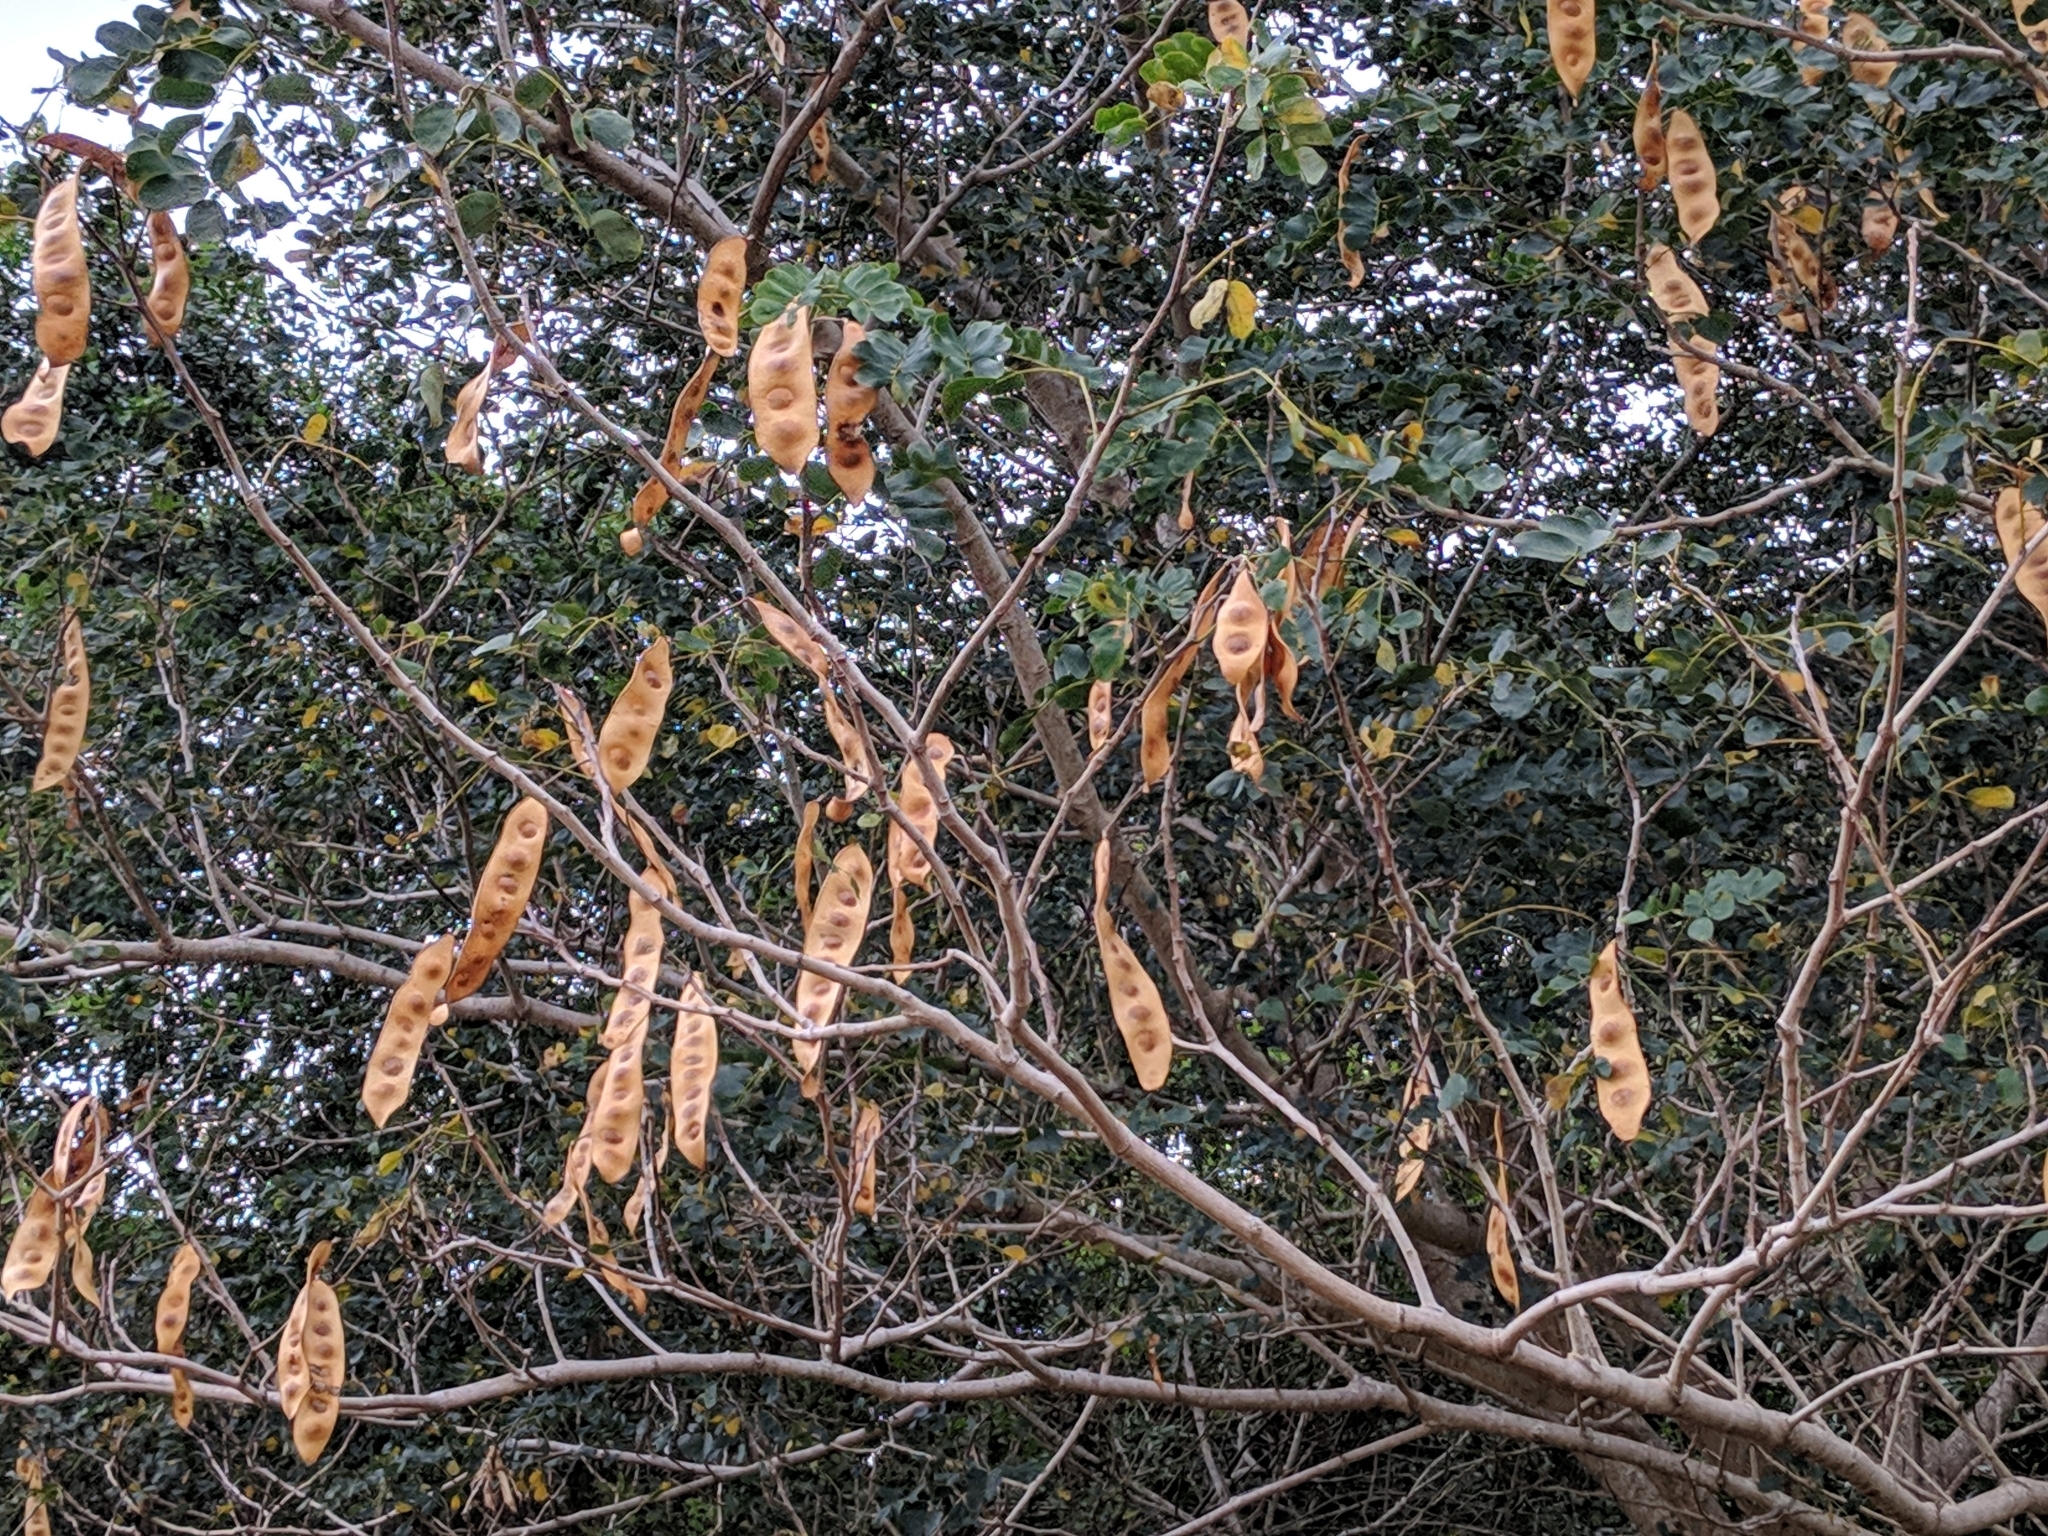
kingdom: Plantae
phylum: Tracheophyta
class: Magnoliopsida
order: Fabales
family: Fabaceae
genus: Albizia
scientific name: Albizia lebbeck
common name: Woman's tongue
